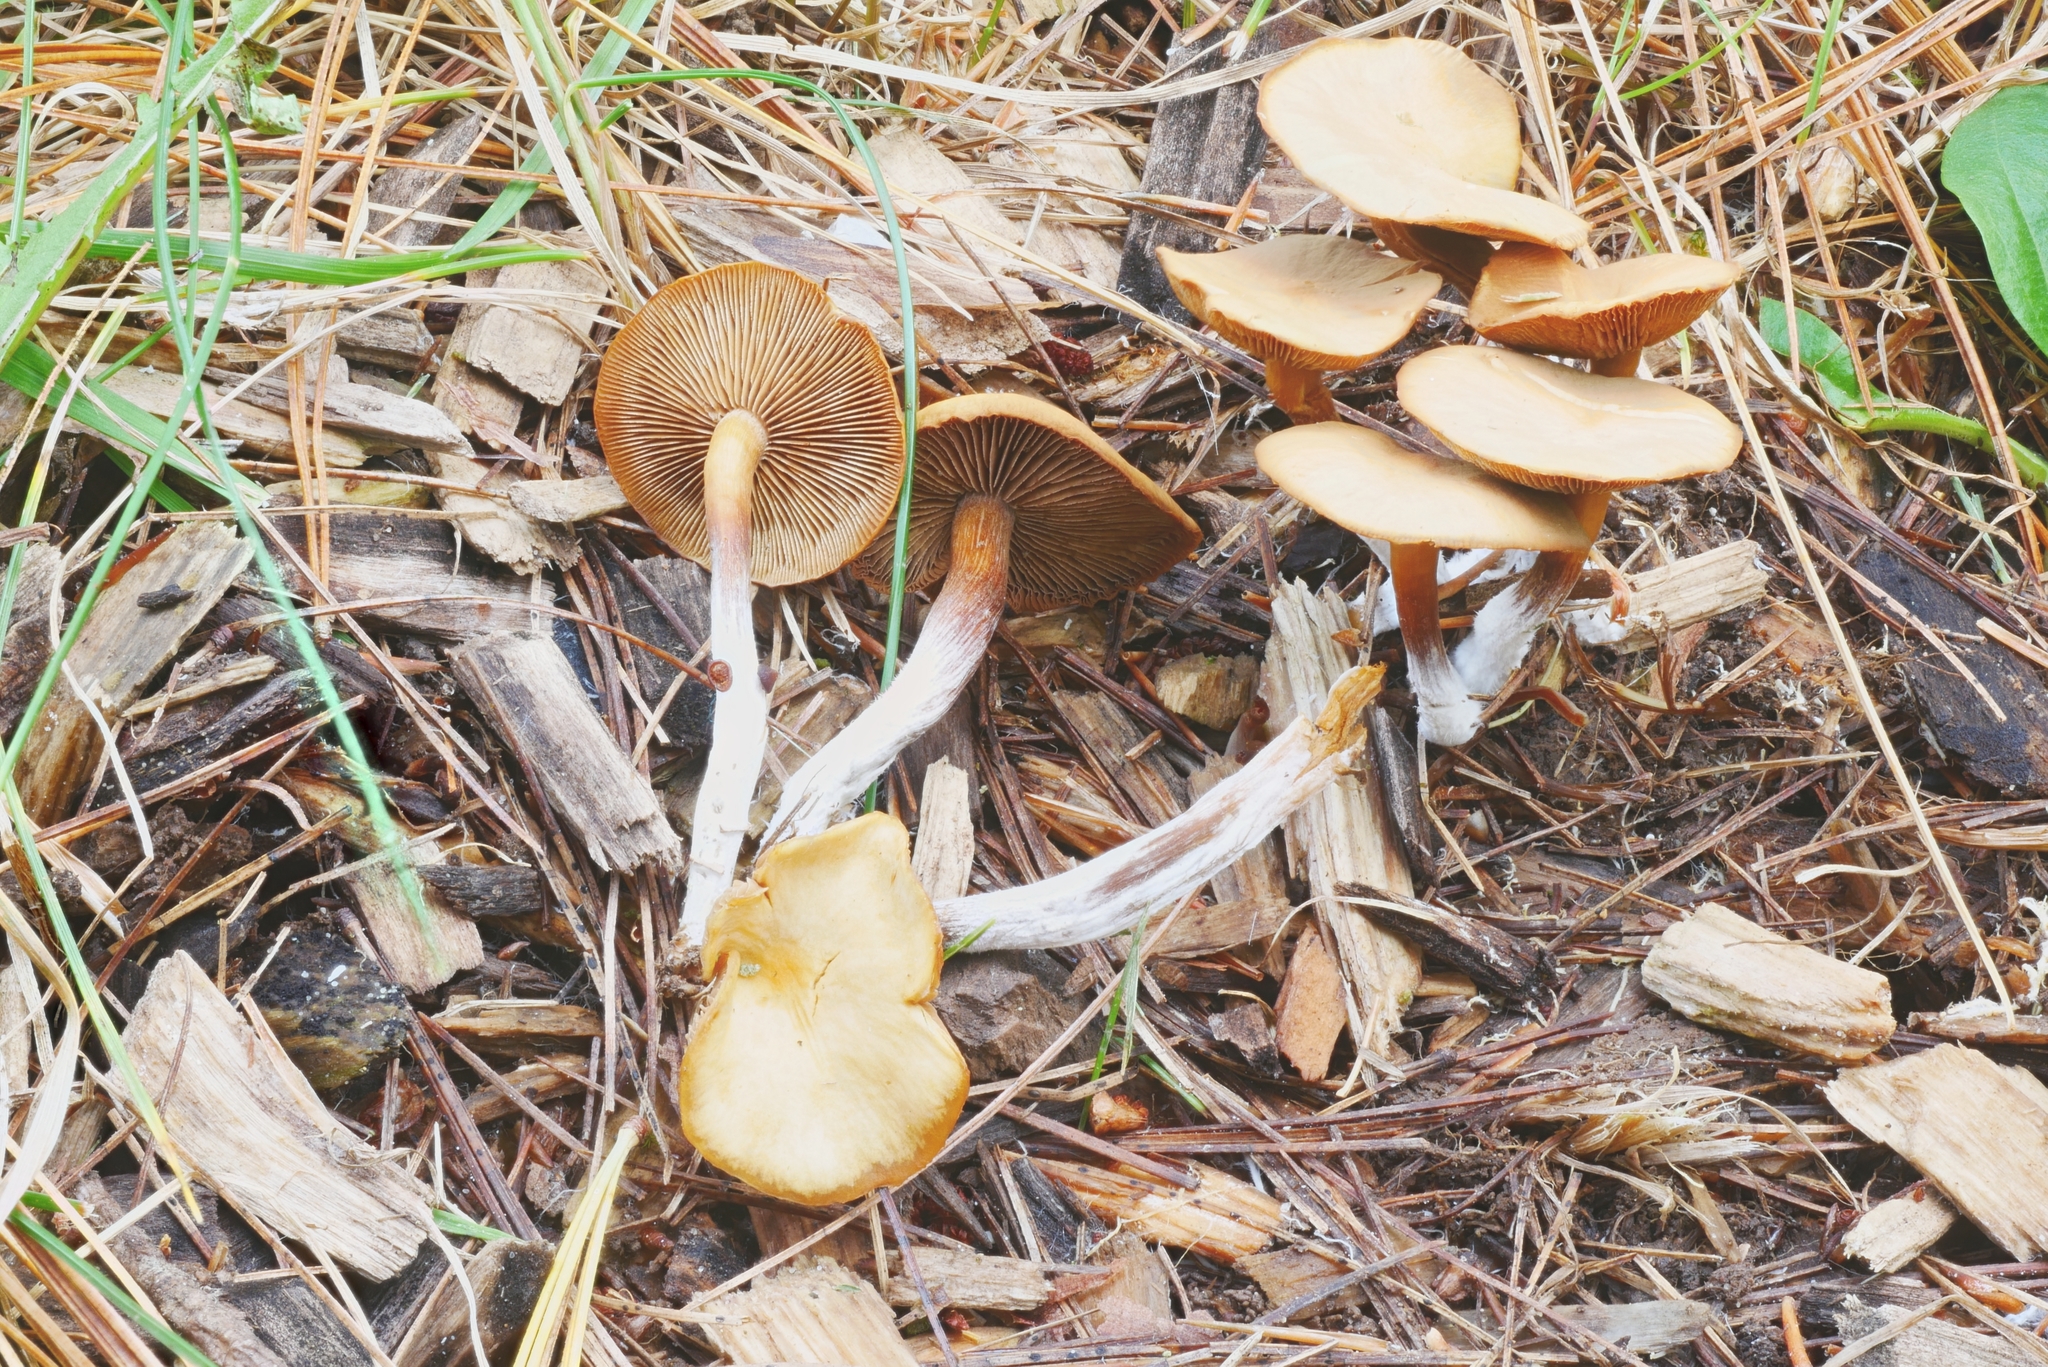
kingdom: Fungi
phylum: Basidiomycota
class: Agaricomycetes
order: Agaricales
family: Strophariaceae
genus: Pholiota
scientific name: Pholiota lignicola
